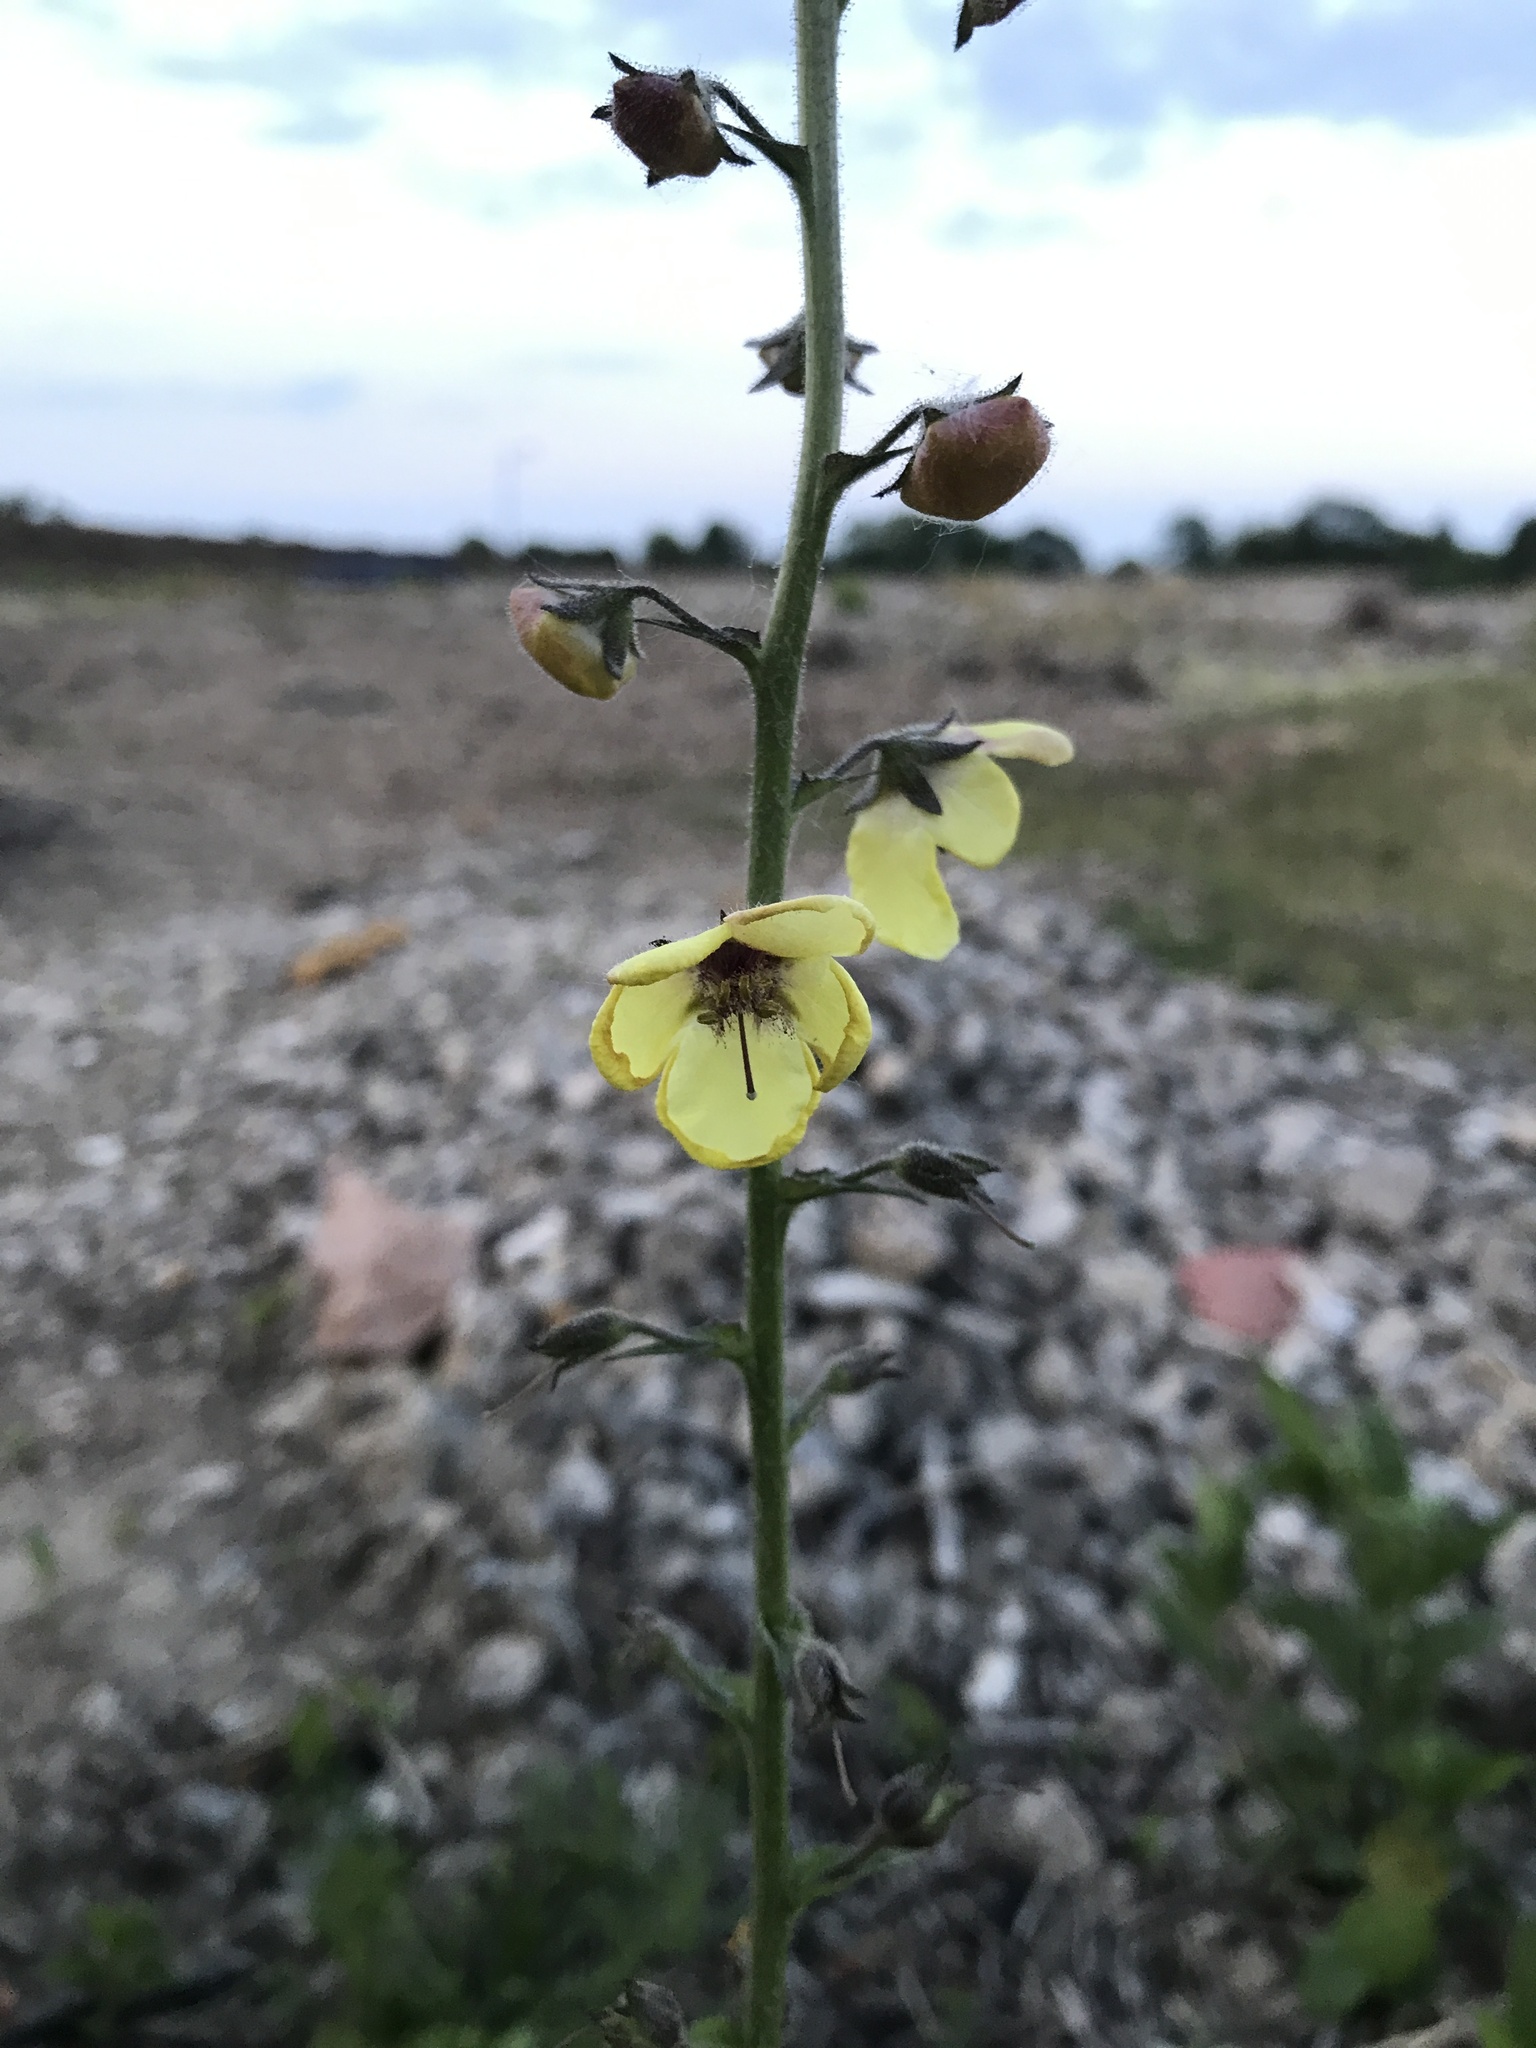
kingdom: Plantae
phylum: Tracheophyta
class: Magnoliopsida
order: Lamiales
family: Scrophulariaceae
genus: Verbascum
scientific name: Verbascum blattaria
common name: Moth mullein
